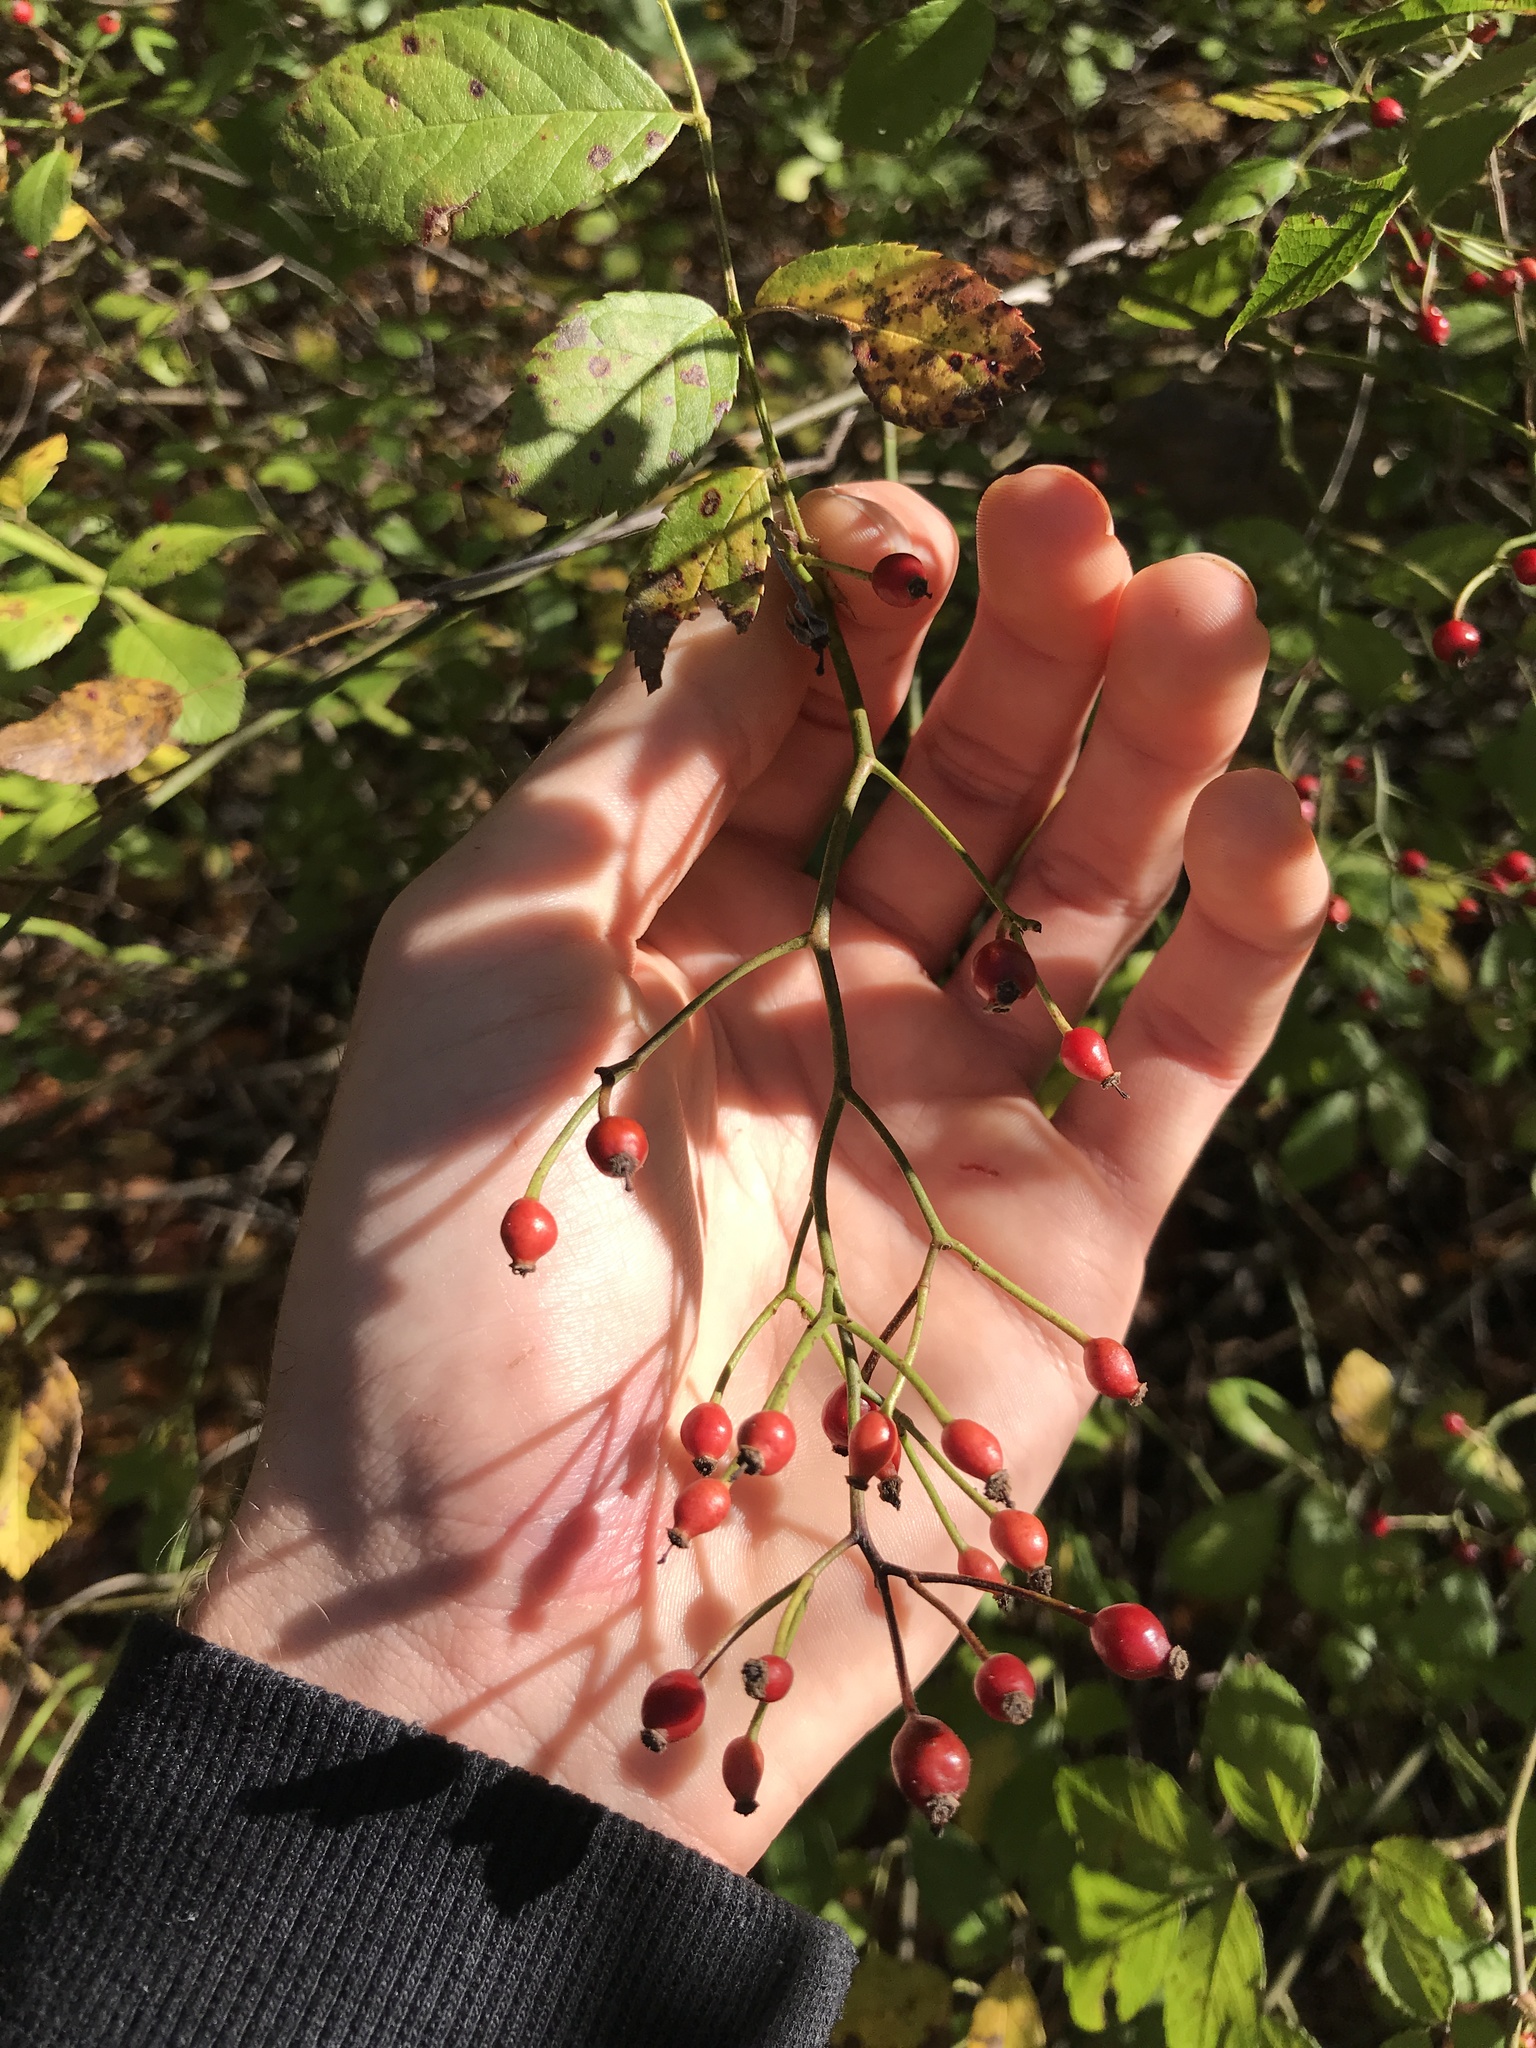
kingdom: Plantae
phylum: Tracheophyta
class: Magnoliopsida
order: Rosales
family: Rosaceae
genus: Rosa
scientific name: Rosa multiflora
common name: Multiflora rose
